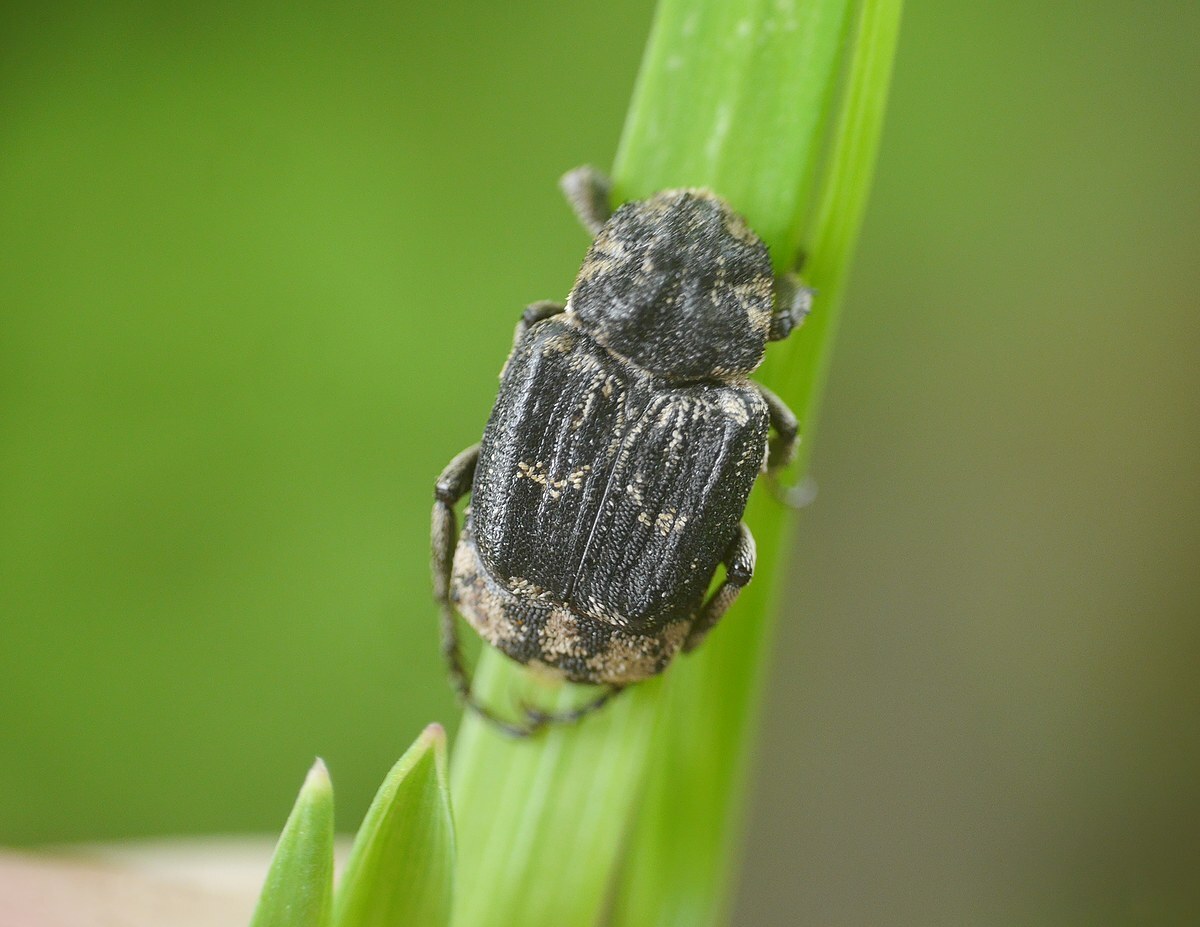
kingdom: Animalia
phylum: Arthropoda
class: Insecta
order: Coleoptera
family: Scarabaeidae
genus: Valgus
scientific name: Valgus hemipterus
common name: Bug flower chafer
